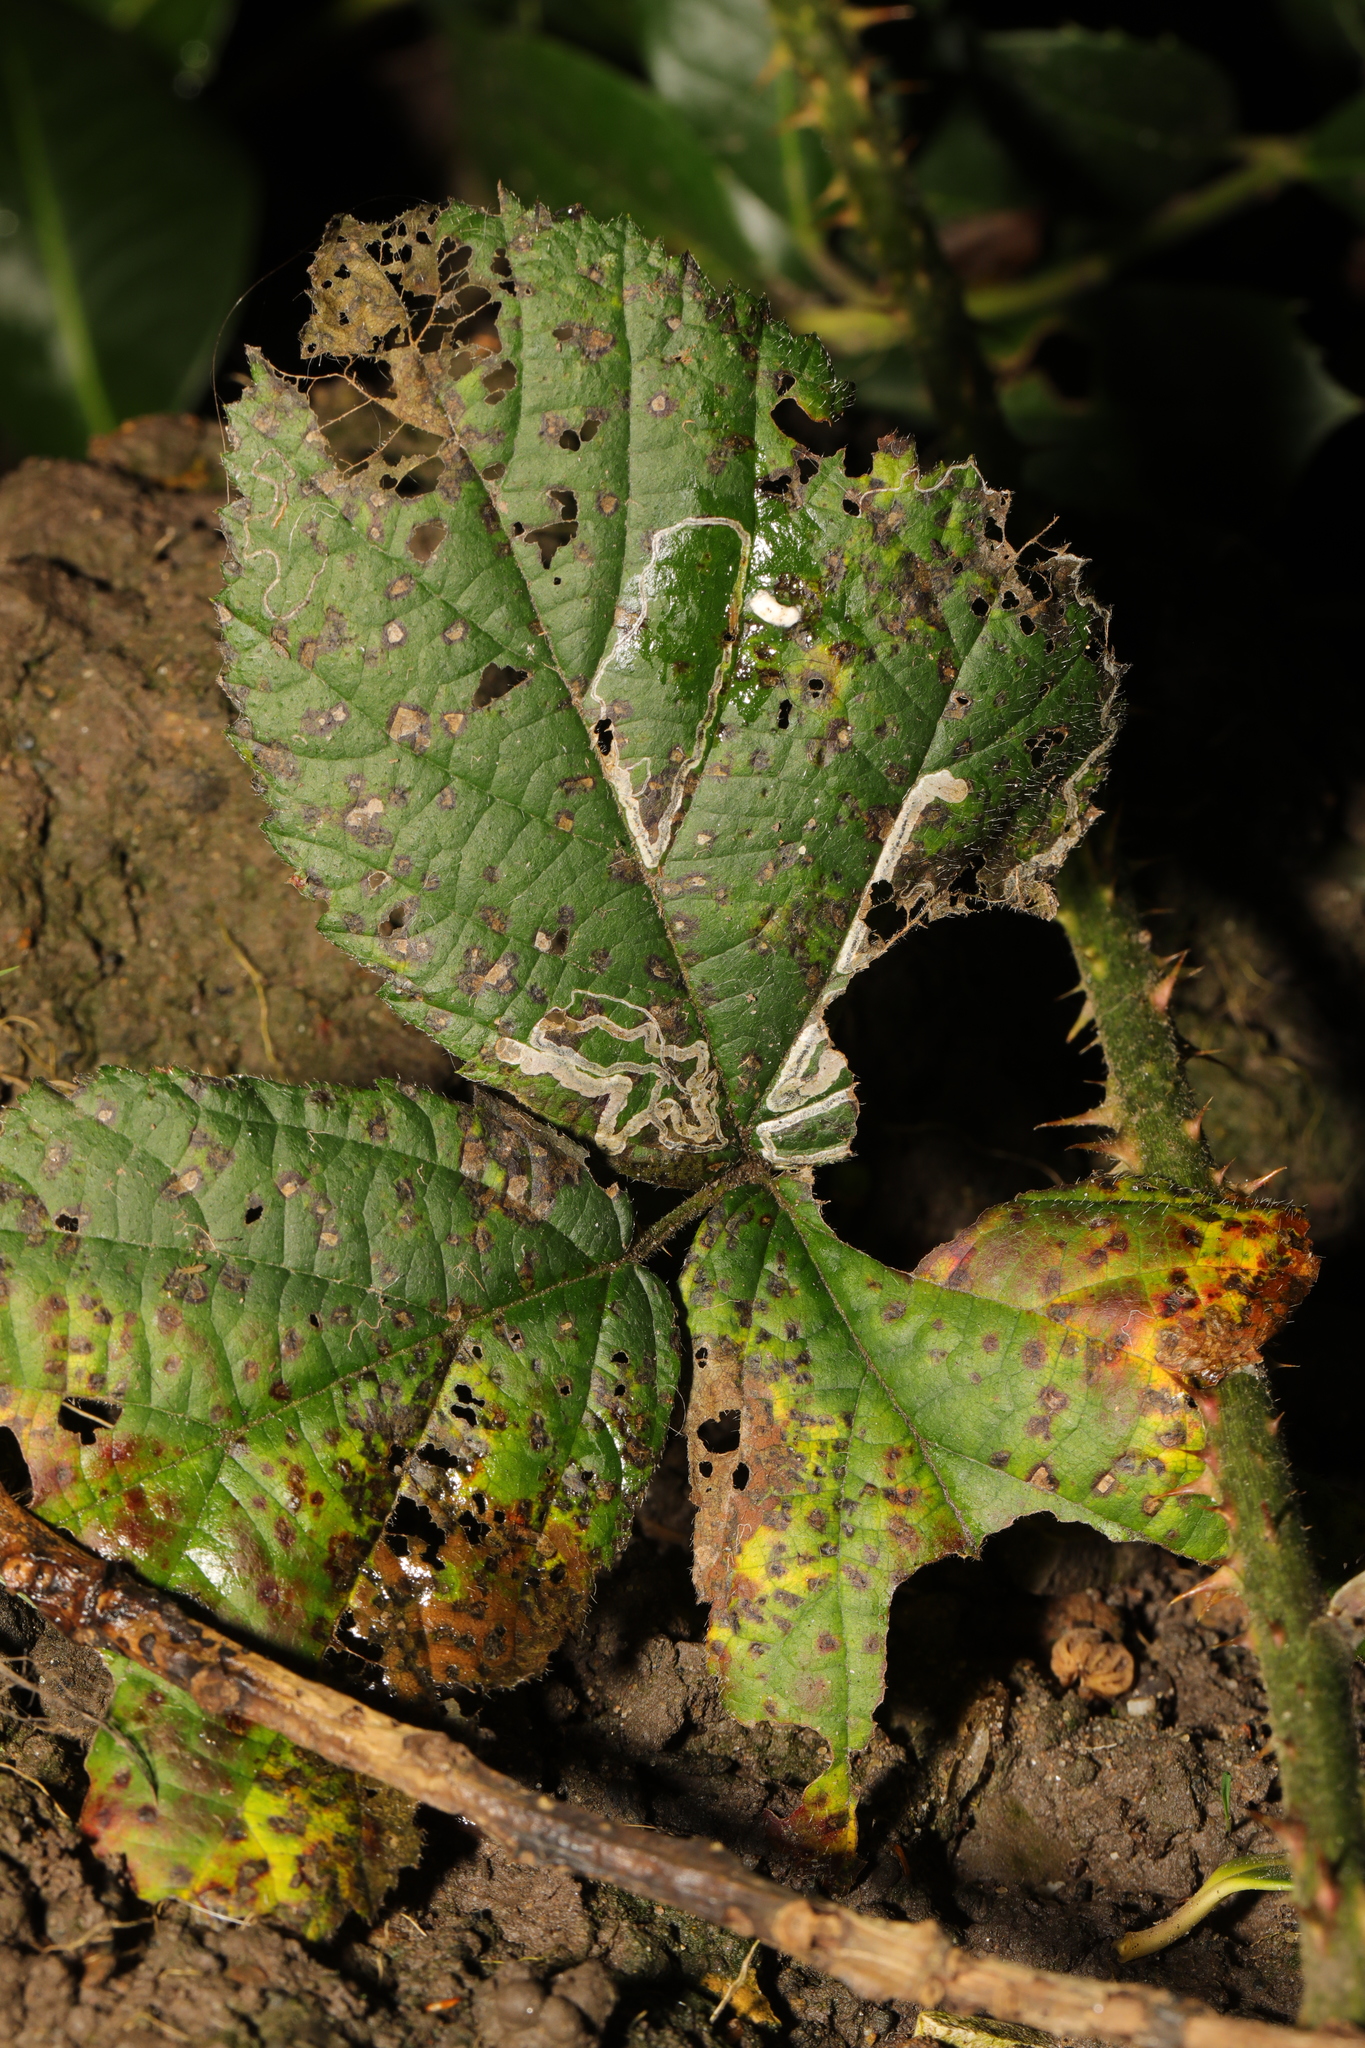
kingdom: Animalia
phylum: Arthropoda
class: Insecta
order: Lepidoptera
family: Nepticulidae
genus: Stigmella
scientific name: Stigmella aurella
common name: Golden pigmy
